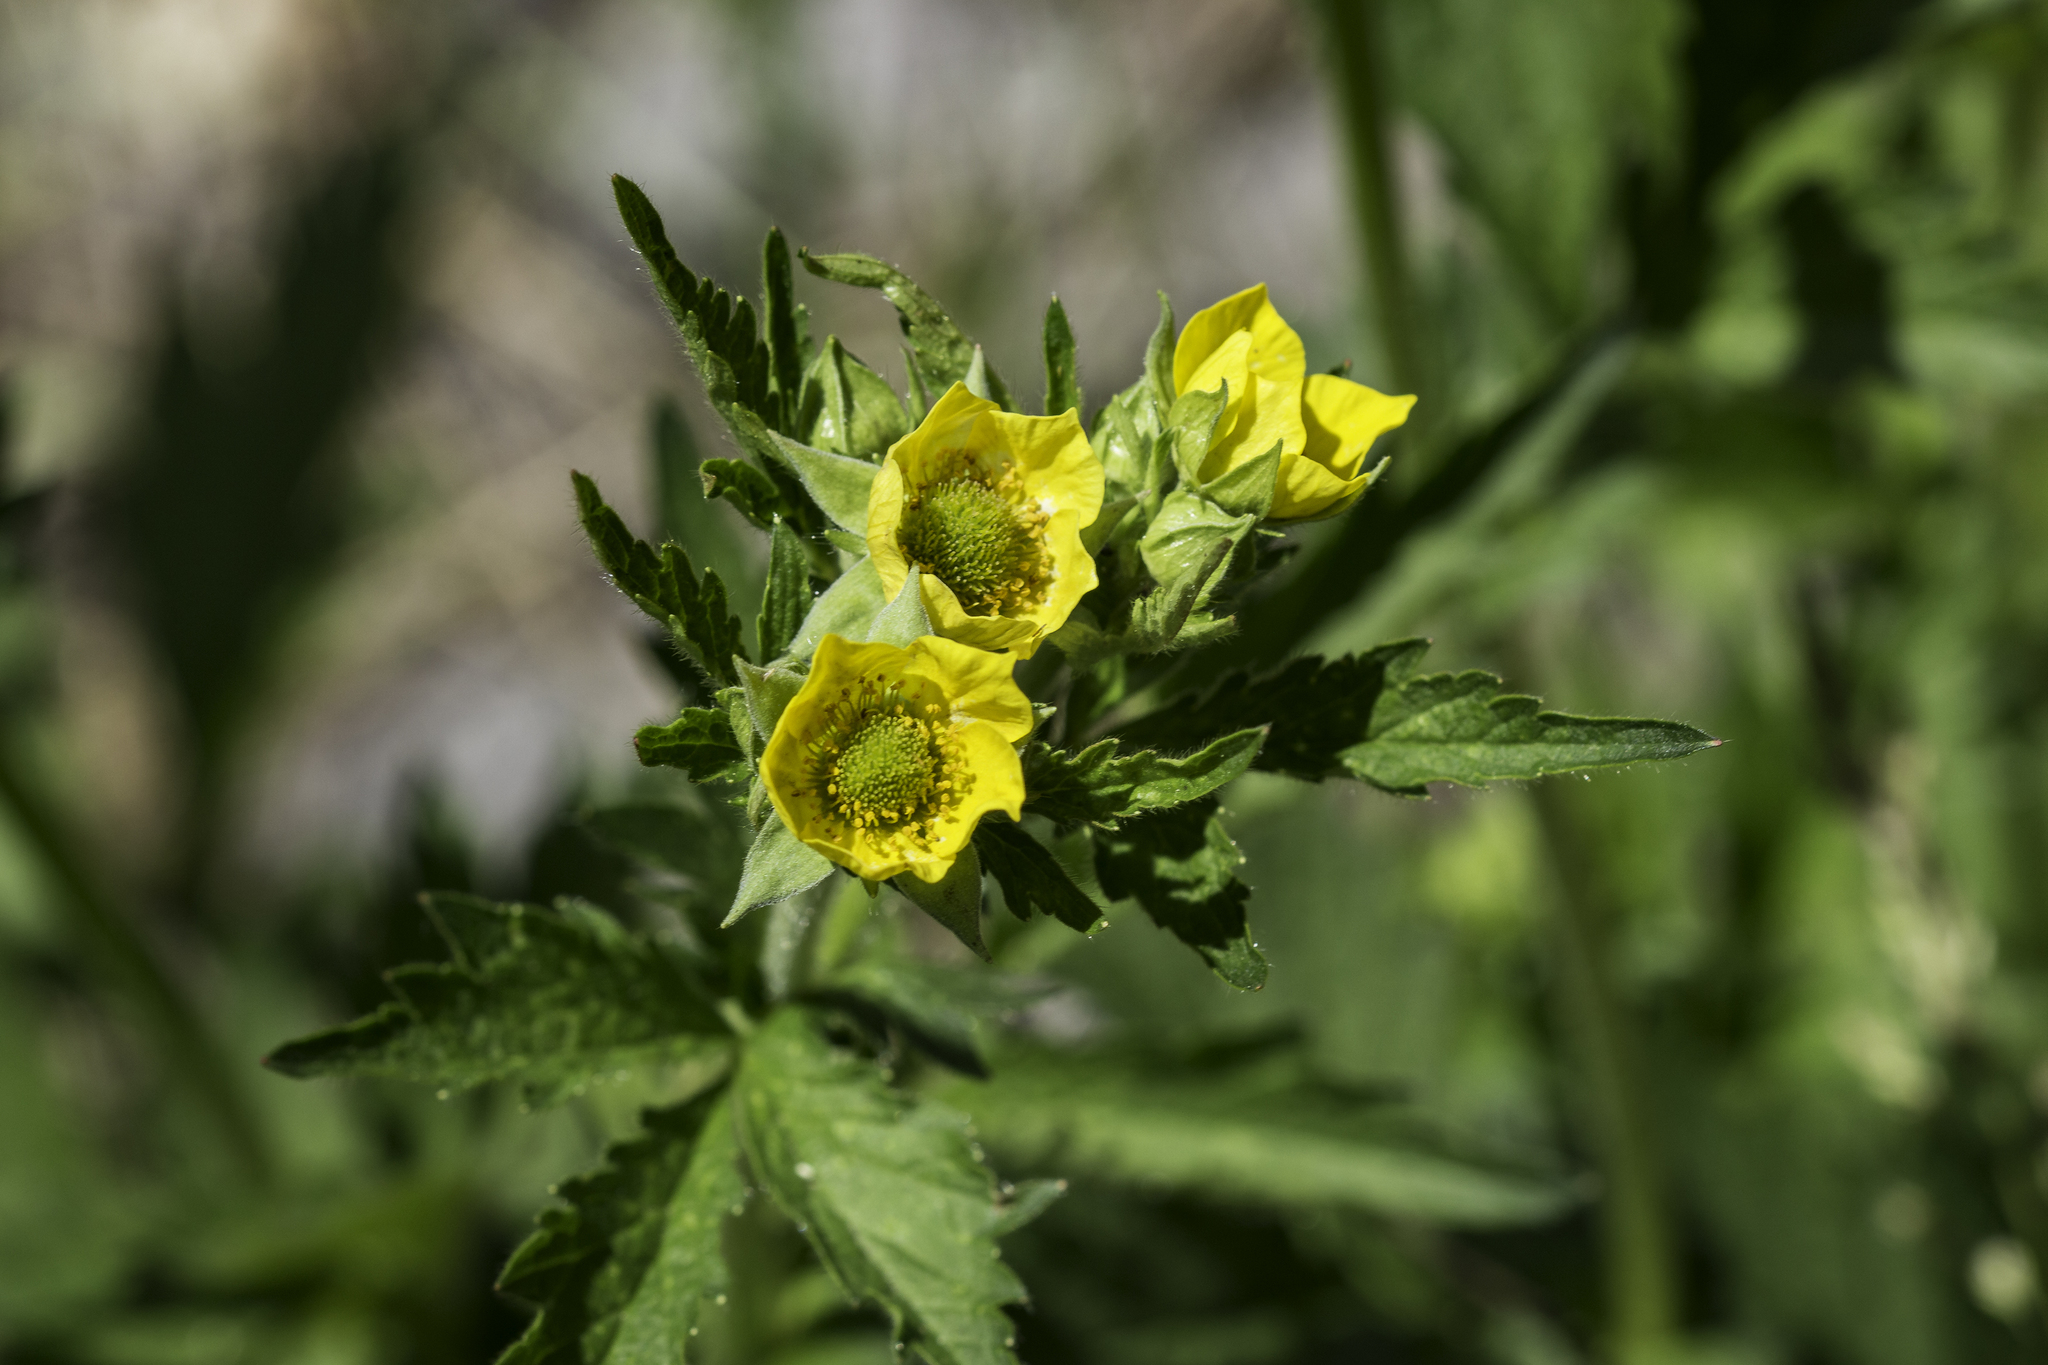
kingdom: Plantae
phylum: Tracheophyta
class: Magnoliopsida
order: Rosales
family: Rosaceae
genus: Geum
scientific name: Geum aleppicum
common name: Yellow avens
